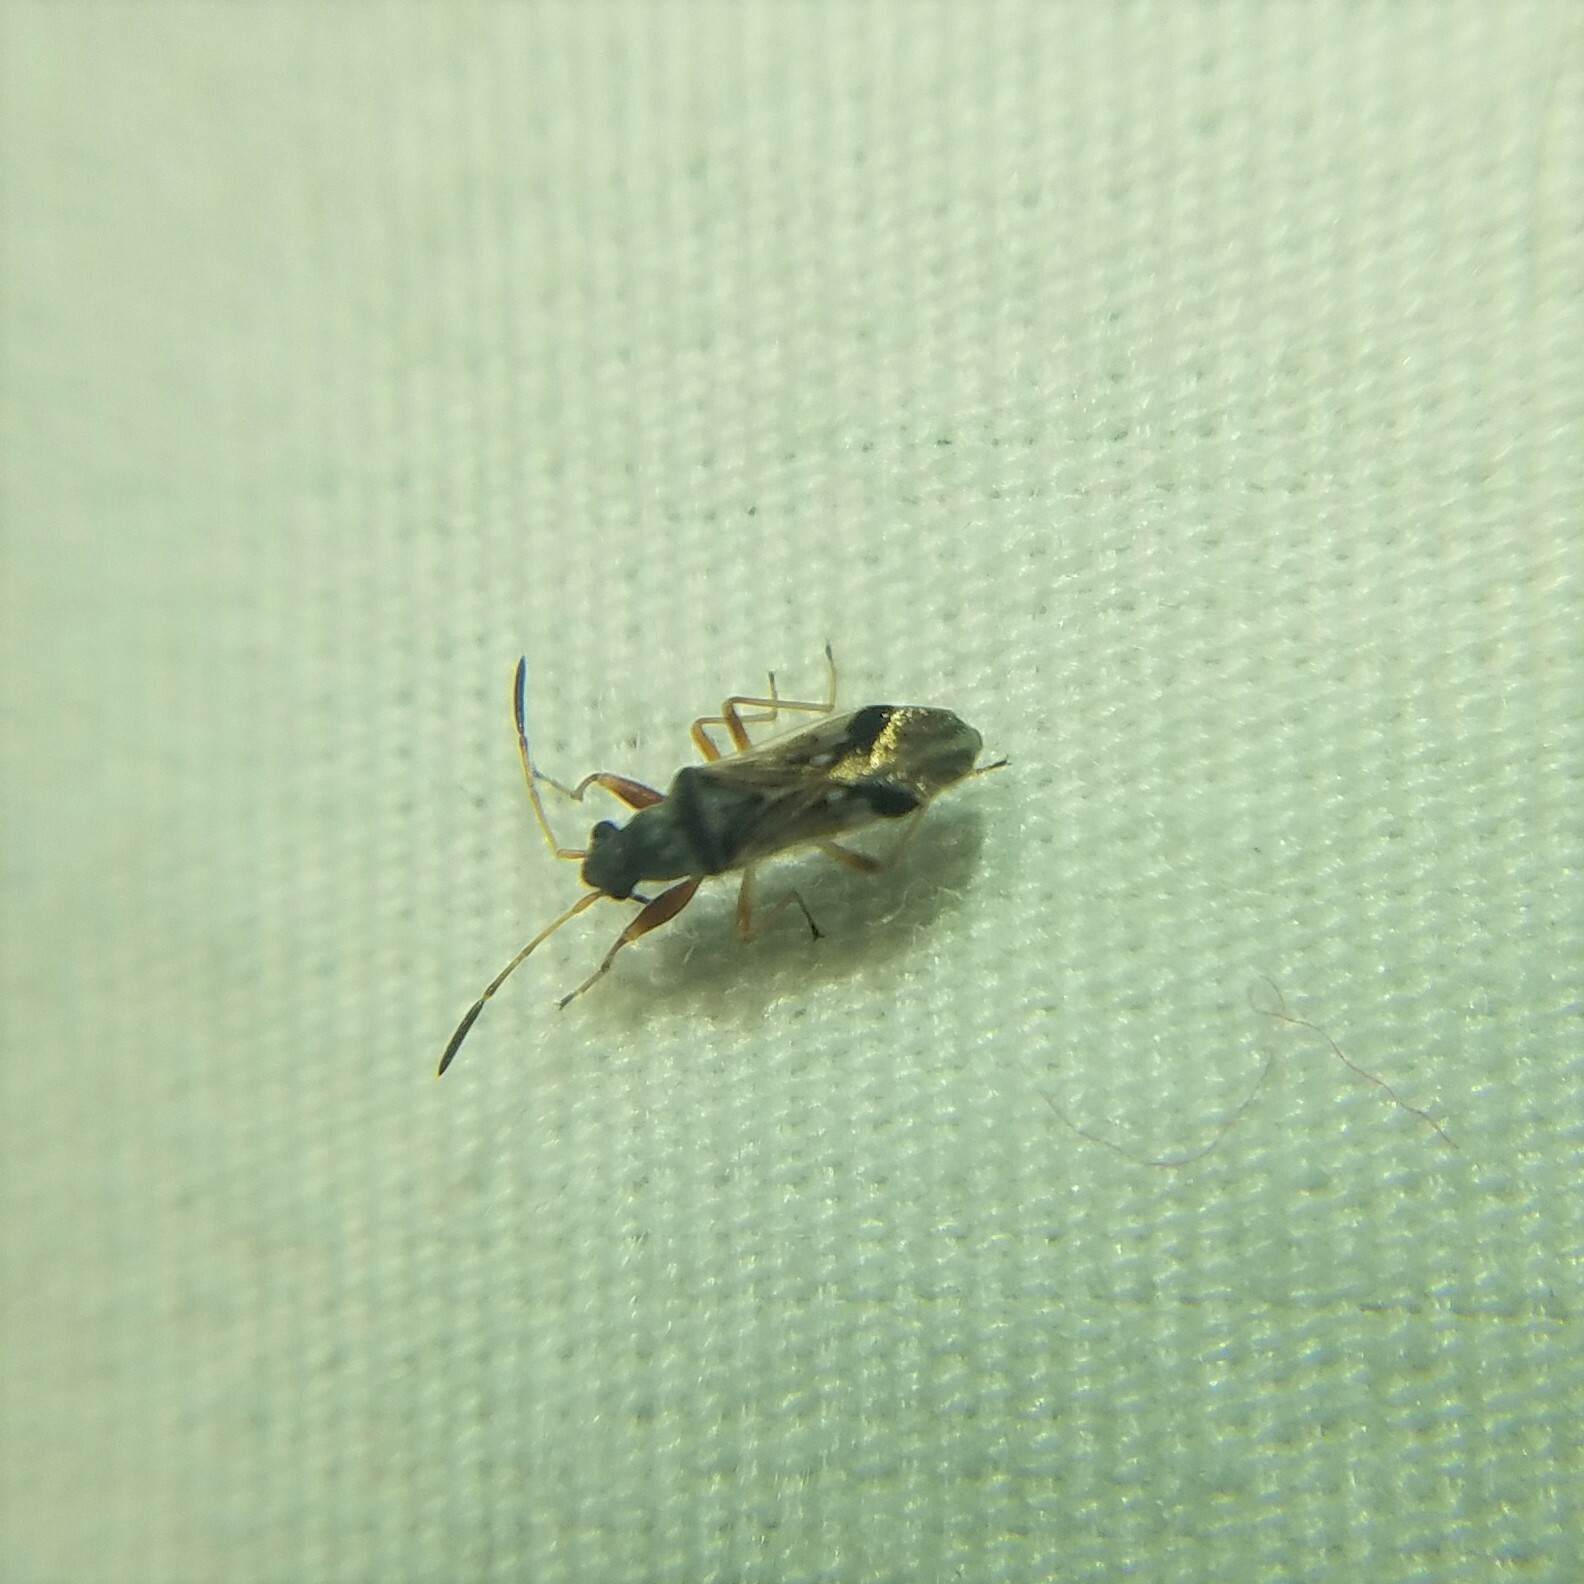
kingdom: Animalia
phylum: Arthropoda
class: Insecta
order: Hemiptera
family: Rhyparochromidae
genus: Pseudopachybrachius
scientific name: Pseudopachybrachius vinctus
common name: Dirt-colored seed bug
